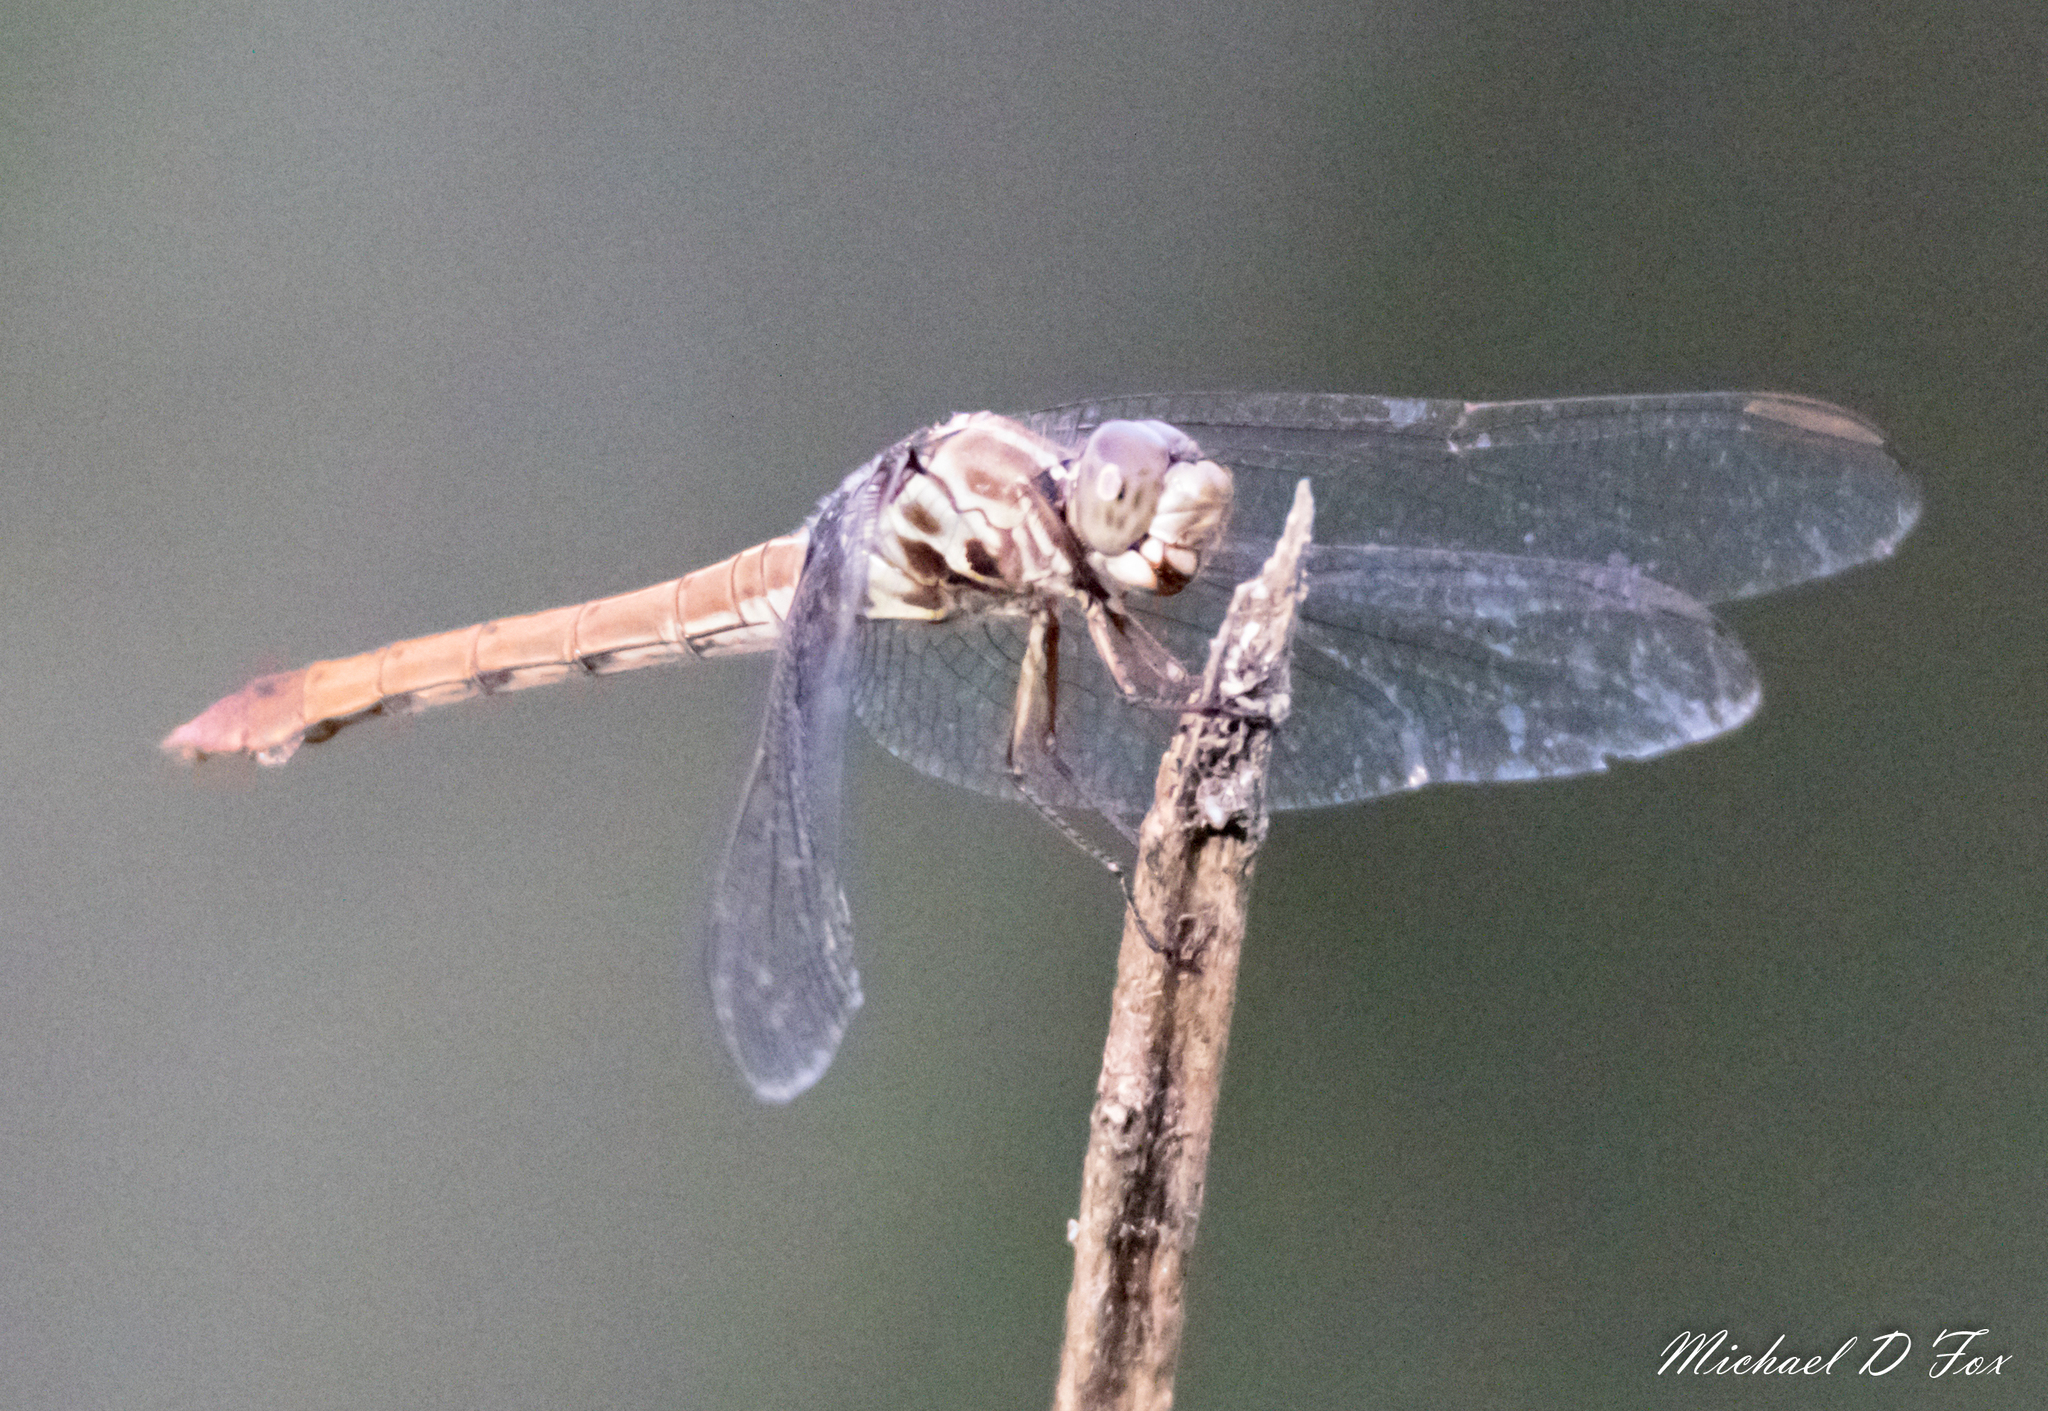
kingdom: Animalia
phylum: Arthropoda
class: Insecta
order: Odonata
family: Libellulidae
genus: Orthemis
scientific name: Orthemis ferruginea
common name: Roseate skimmer
